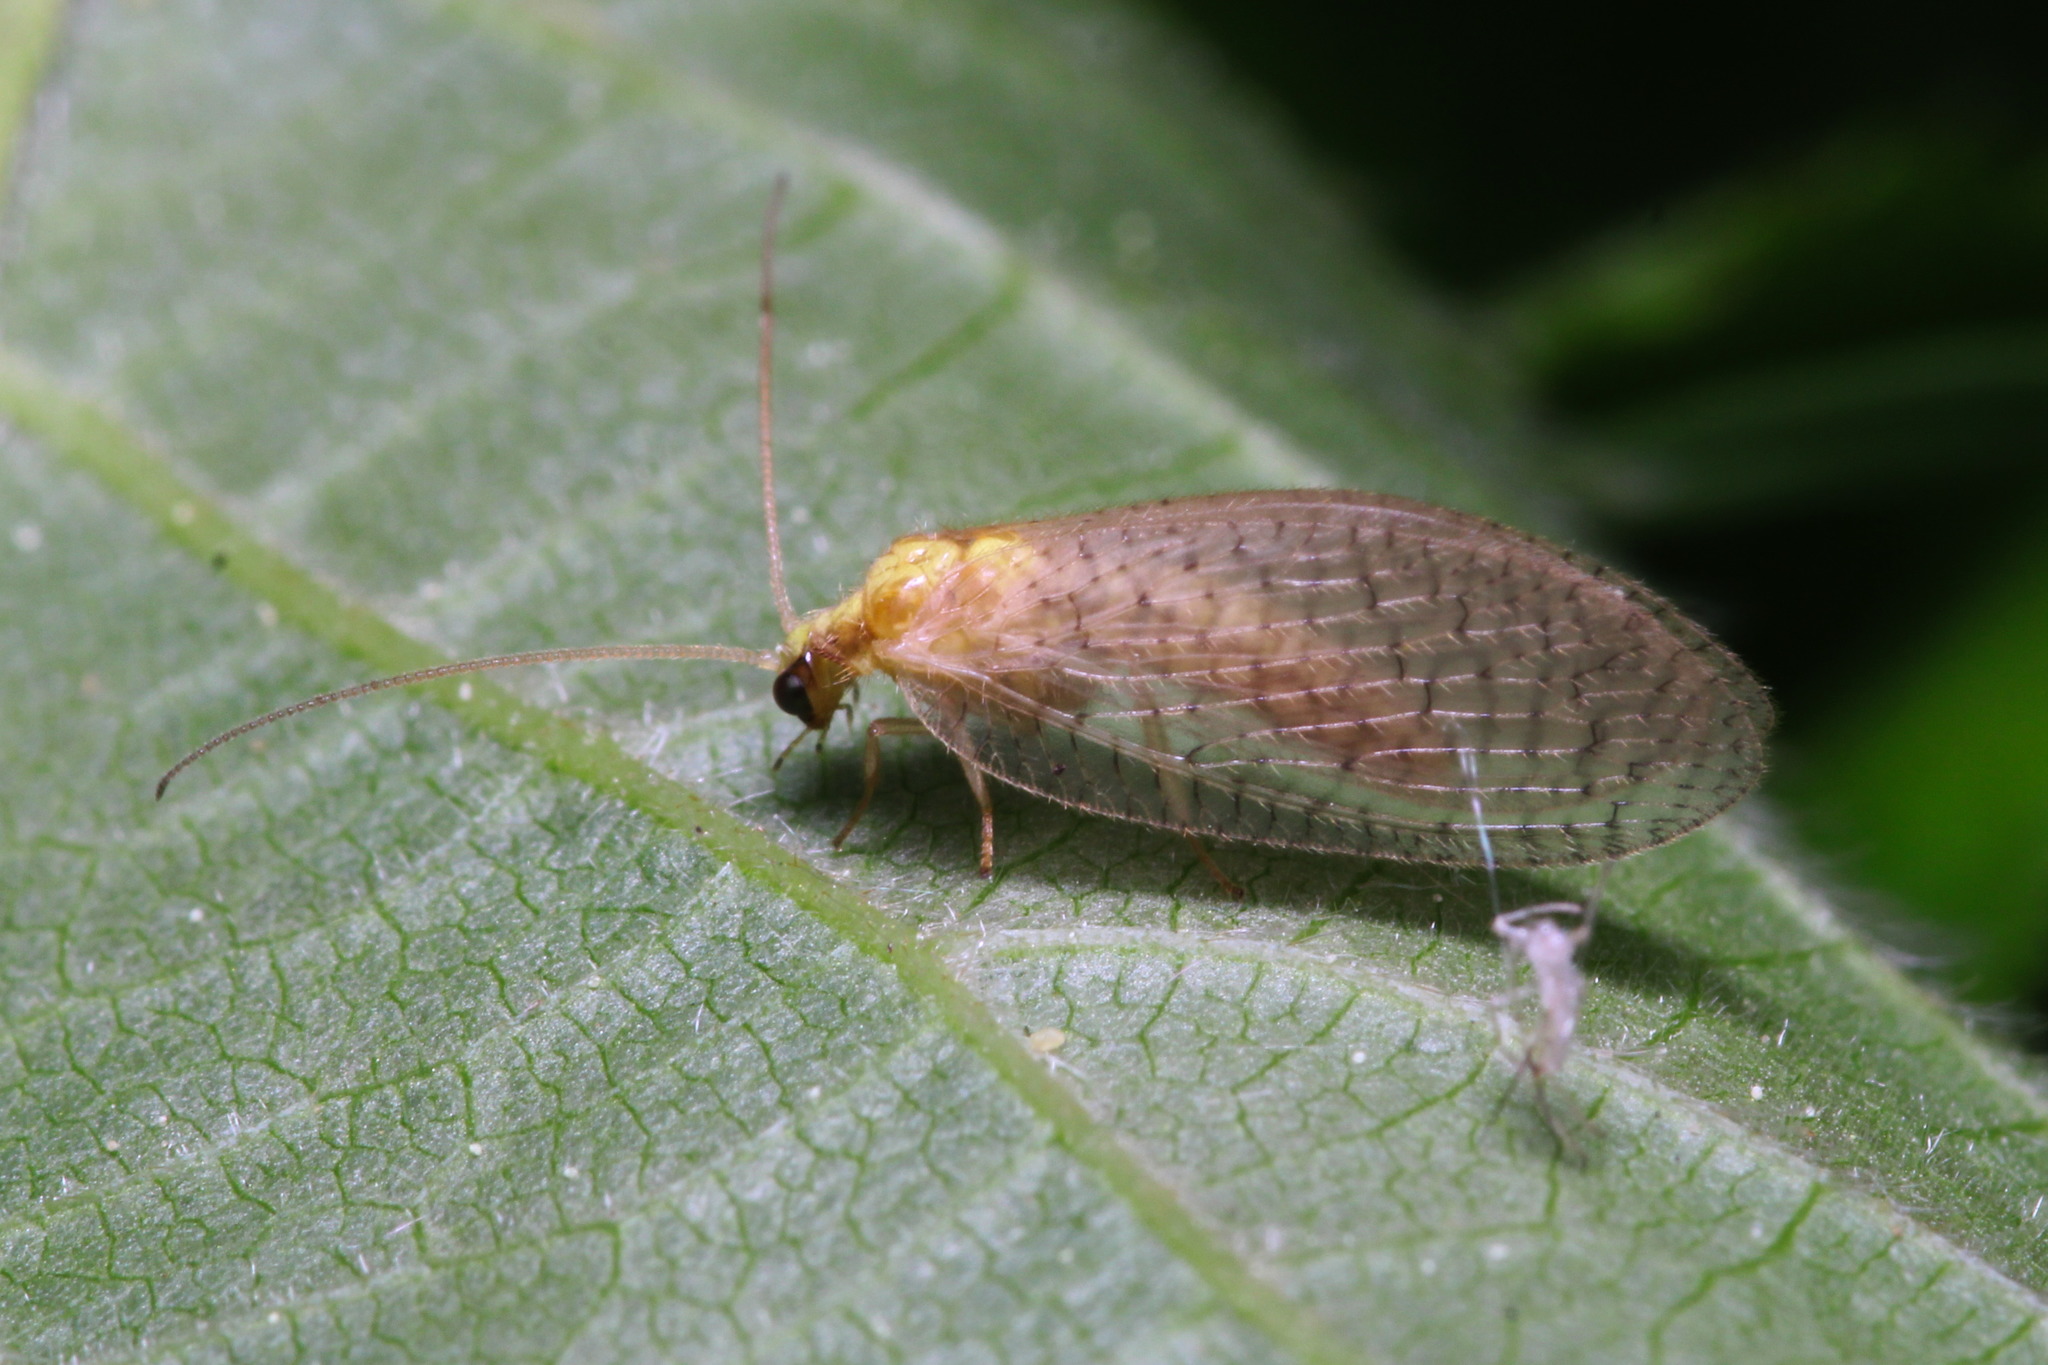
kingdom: Animalia
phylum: Arthropoda
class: Insecta
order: Neuroptera
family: Hemerobiidae
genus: Hemerobius
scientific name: Hemerobius micans
